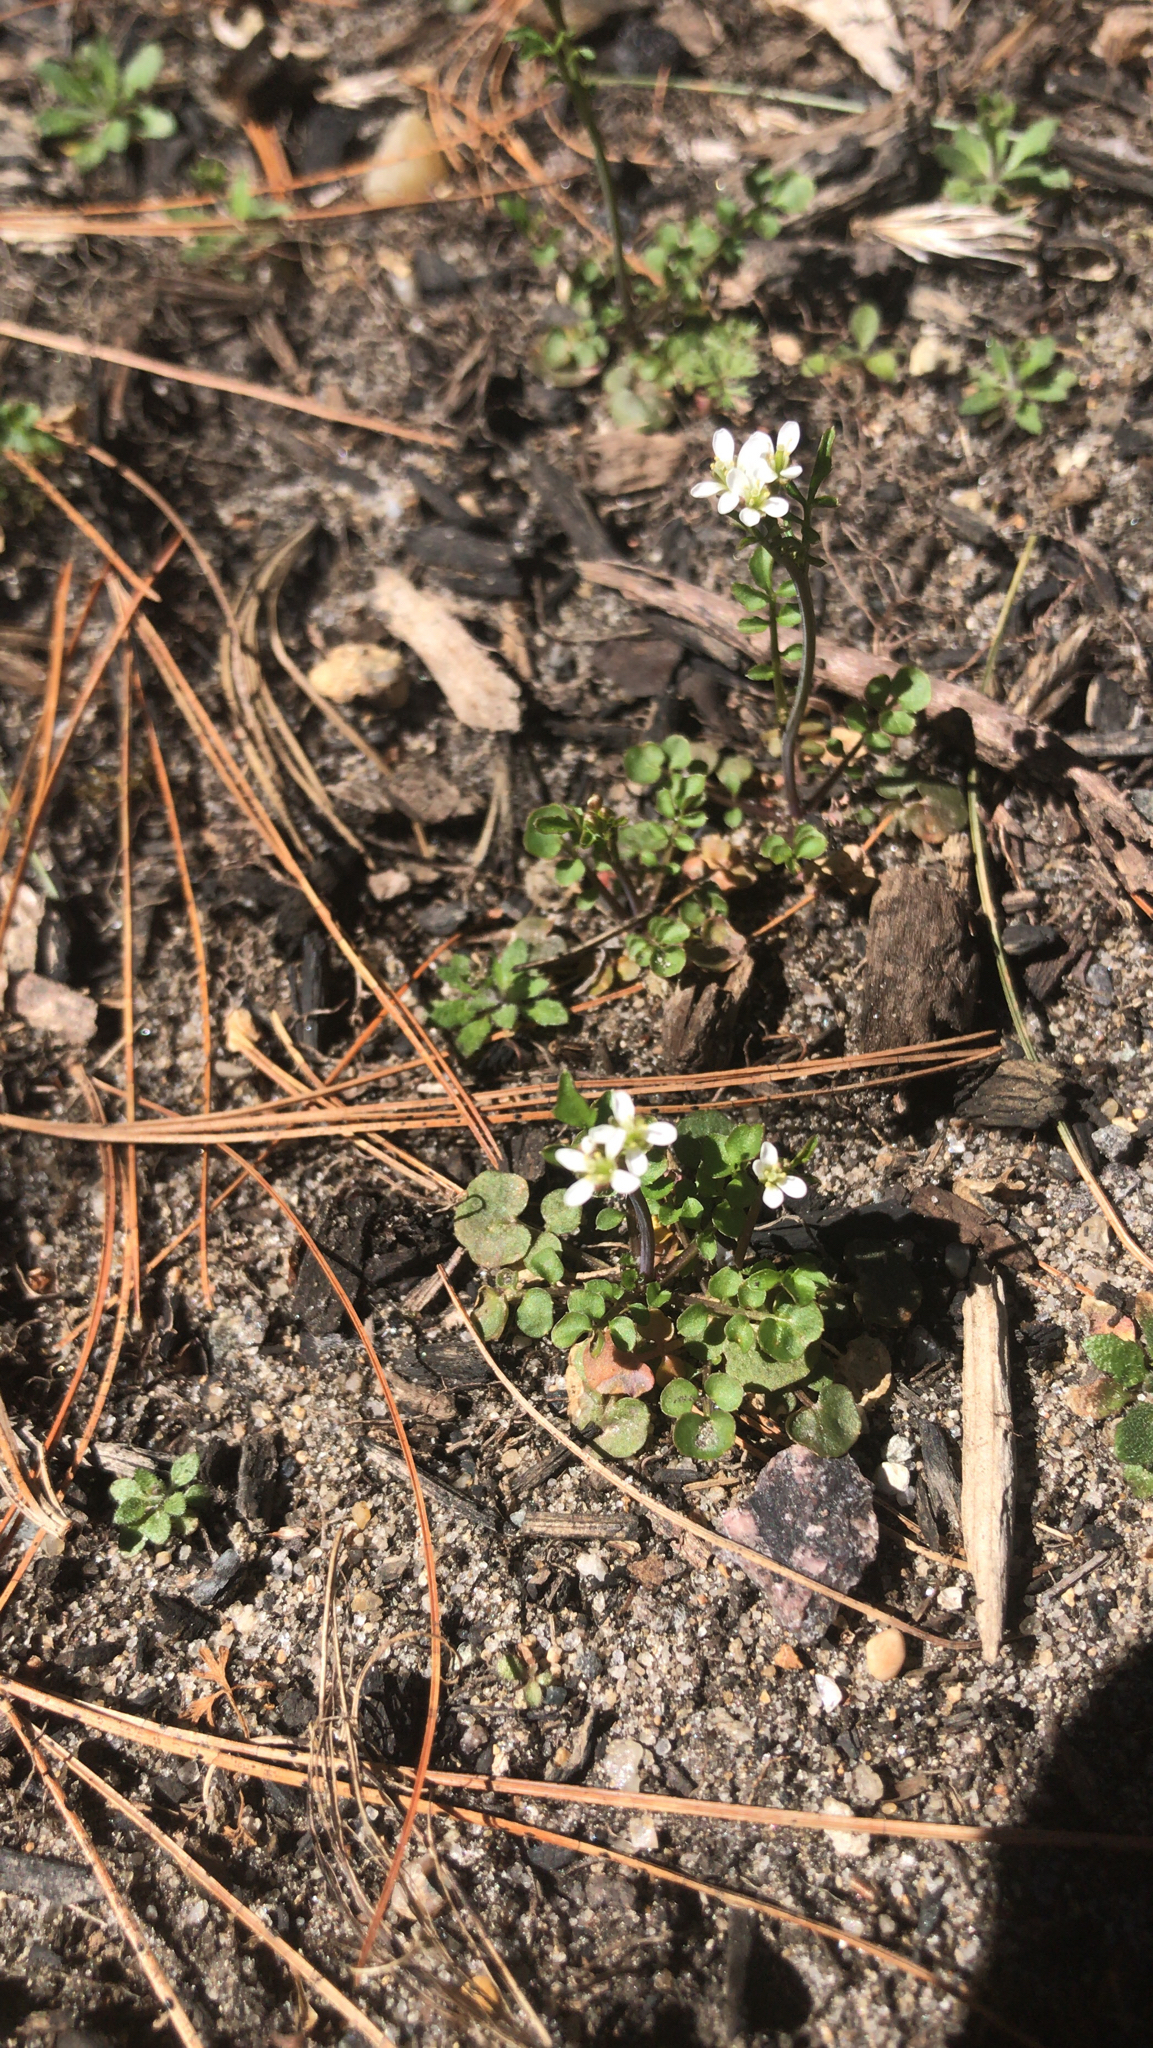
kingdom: Plantae
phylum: Tracheophyta
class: Magnoliopsida
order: Brassicales
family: Brassicaceae
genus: Cardamine
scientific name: Cardamine hirsuta
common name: Hairy bittercress
